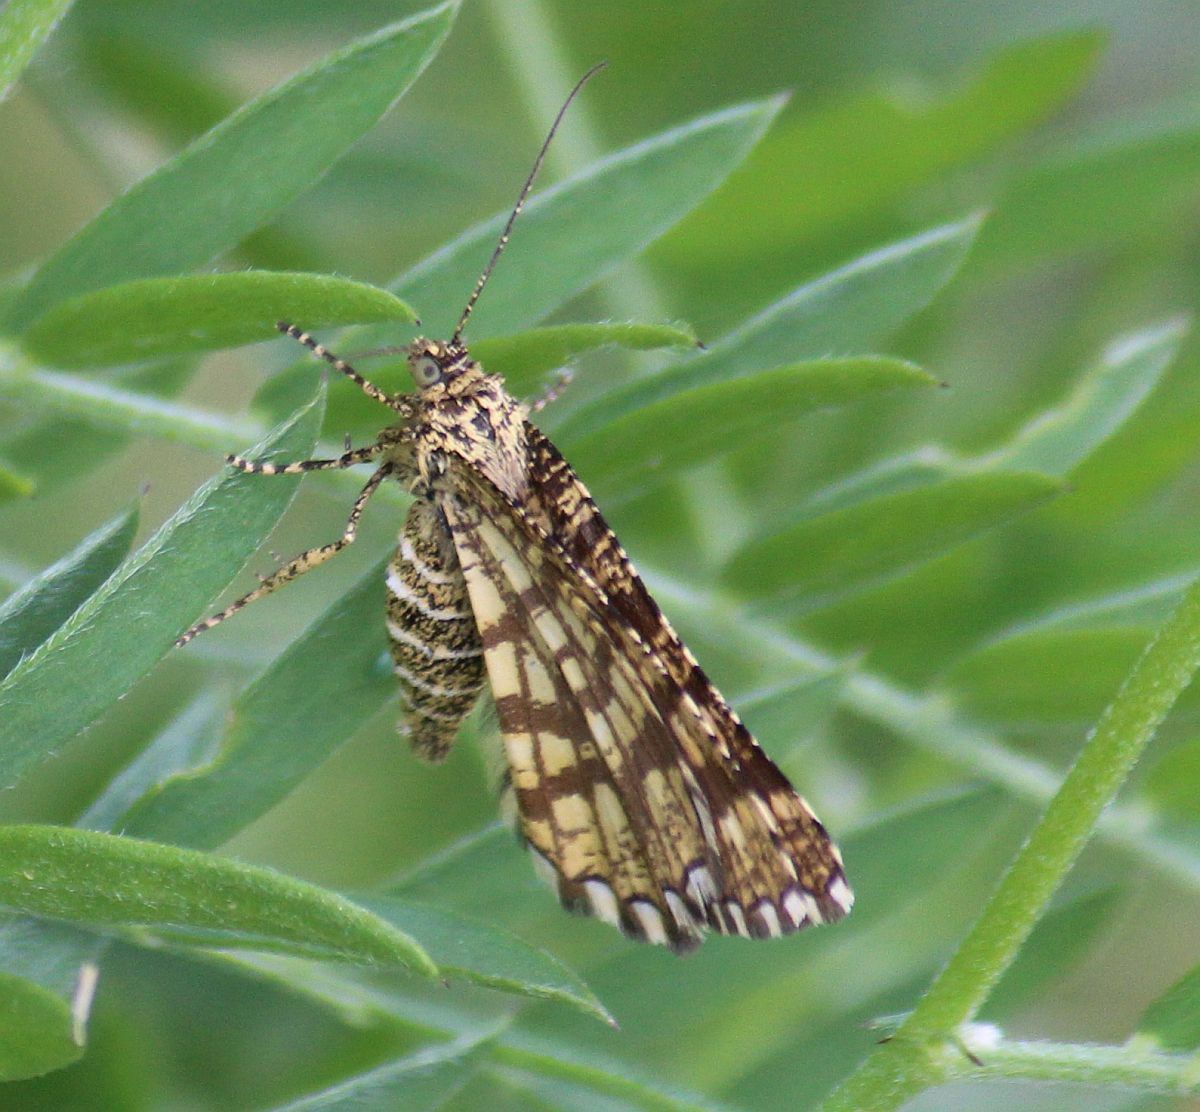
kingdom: Animalia
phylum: Arthropoda
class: Insecta
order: Lepidoptera
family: Geometridae
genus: Chiasmia
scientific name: Chiasmia clathrata
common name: Latticed heath
